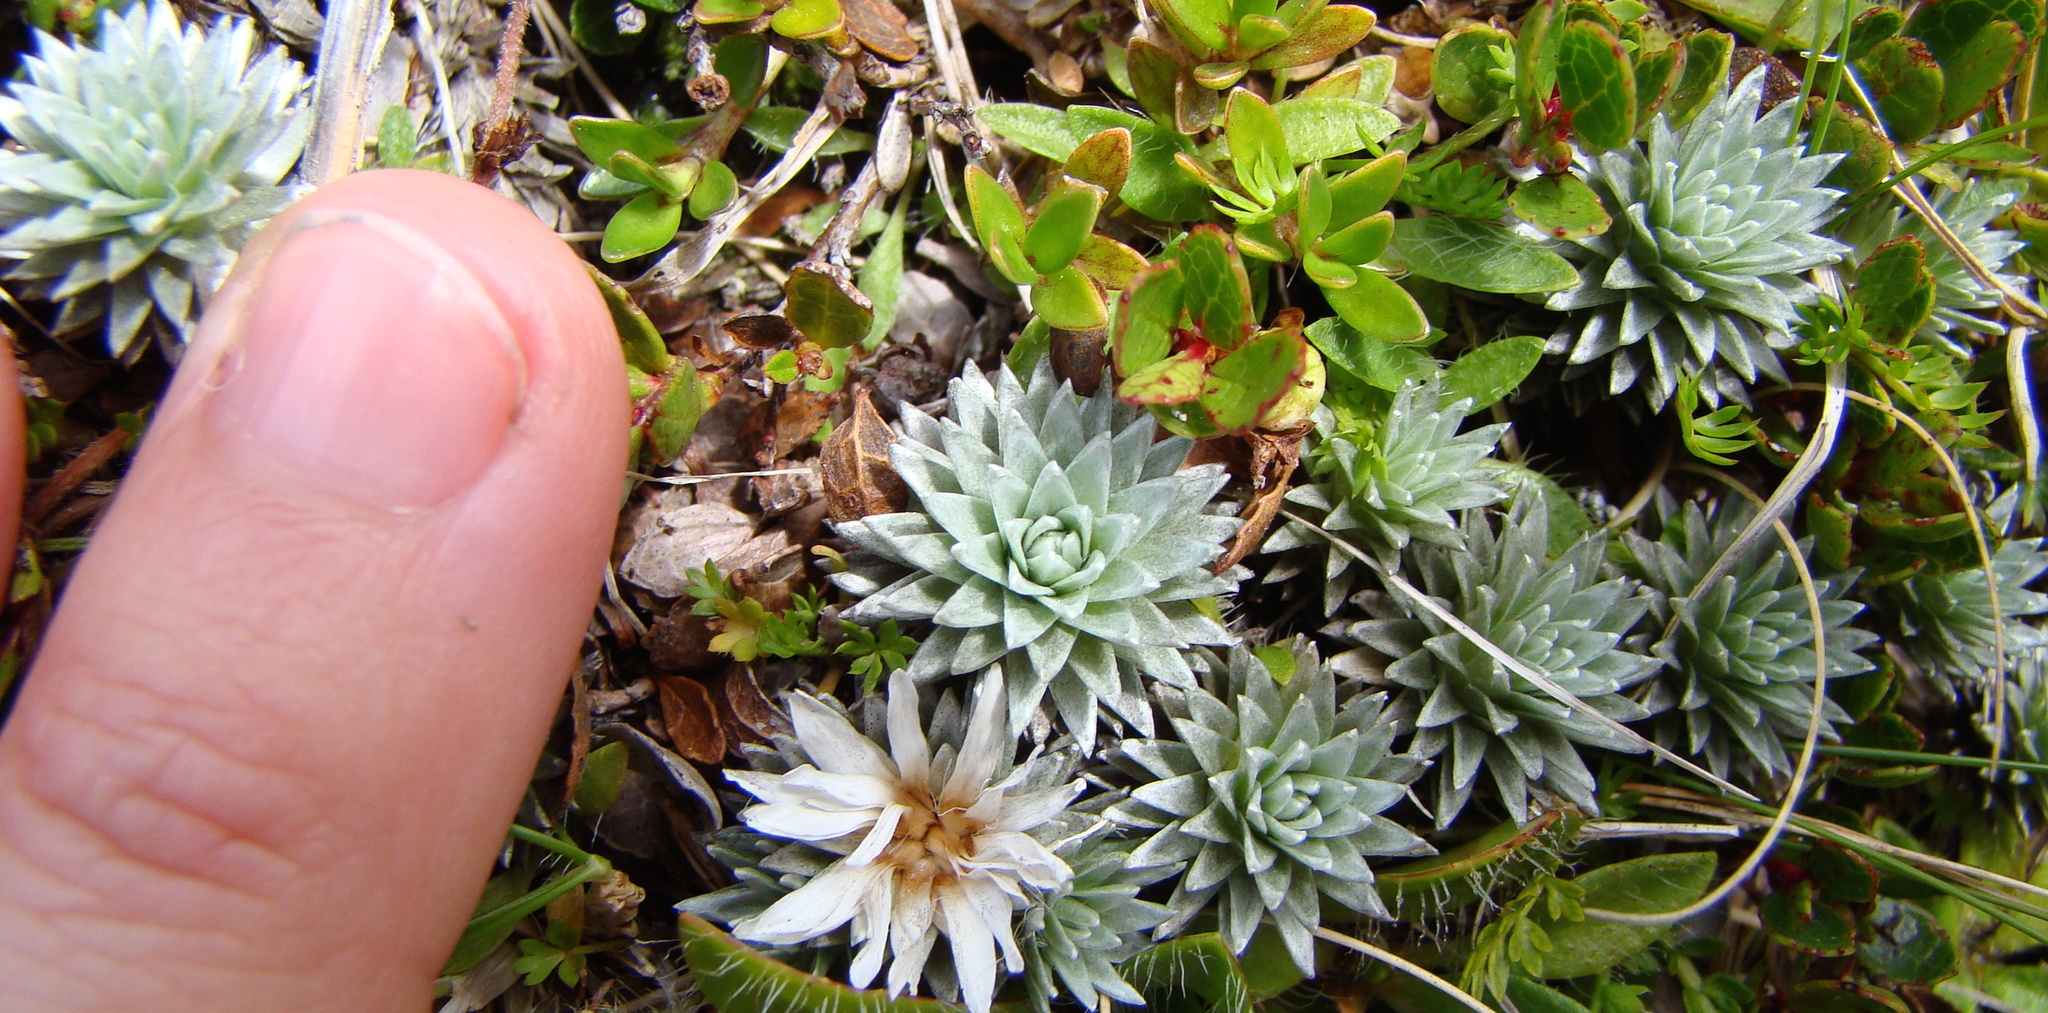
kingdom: Plantae
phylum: Tracheophyta
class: Magnoliopsida
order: Asterales
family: Asteraceae
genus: Raoulia
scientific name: Raoulia grandiflora
